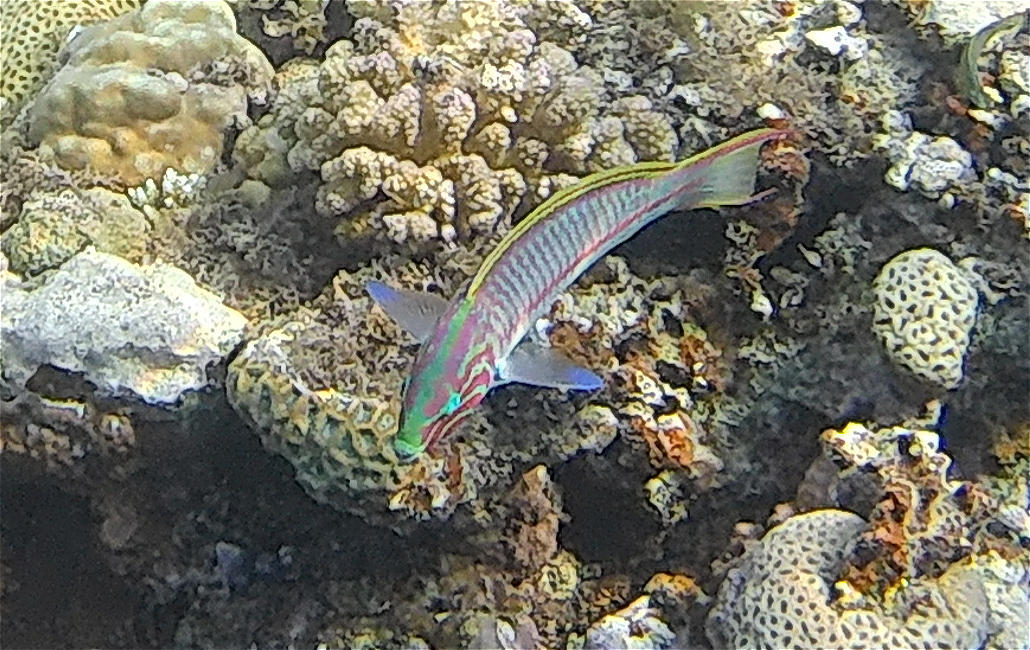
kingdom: Animalia
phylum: Chordata
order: Perciformes
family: Labridae
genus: Thalassoma
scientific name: Thalassoma rueppellii
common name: Klunzinger's wrasse
